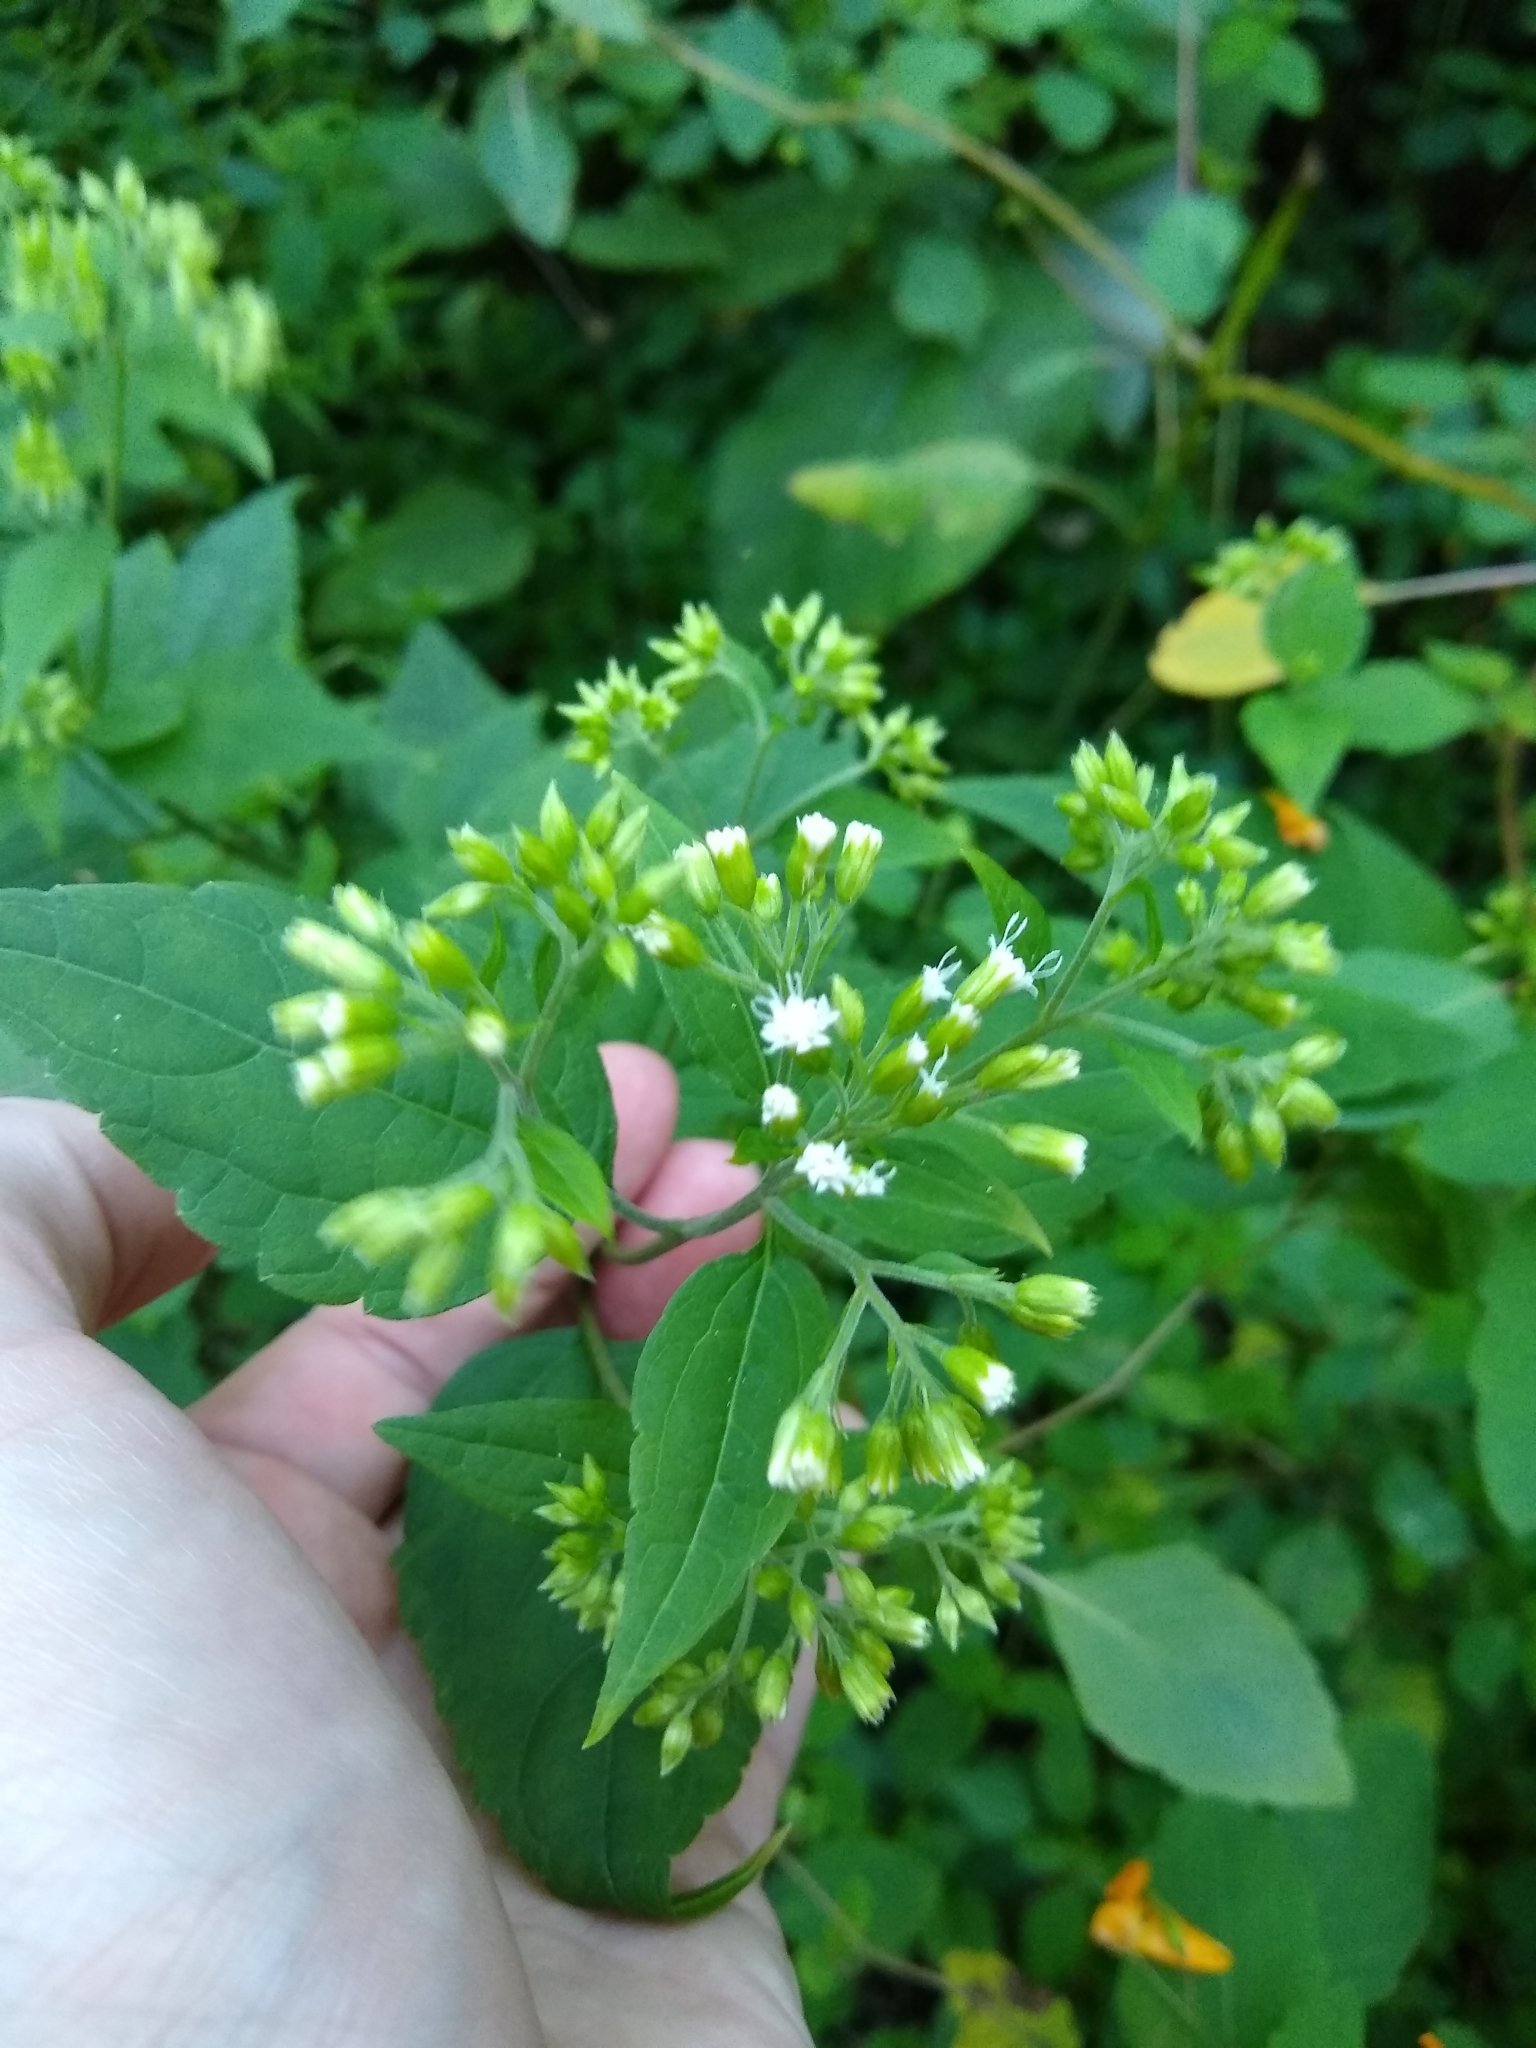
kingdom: Plantae
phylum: Tracheophyta
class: Magnoliopsida
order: Asterales
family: Asteraceae
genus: Ageratina
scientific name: Ageratina altissima
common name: White snakeroot
